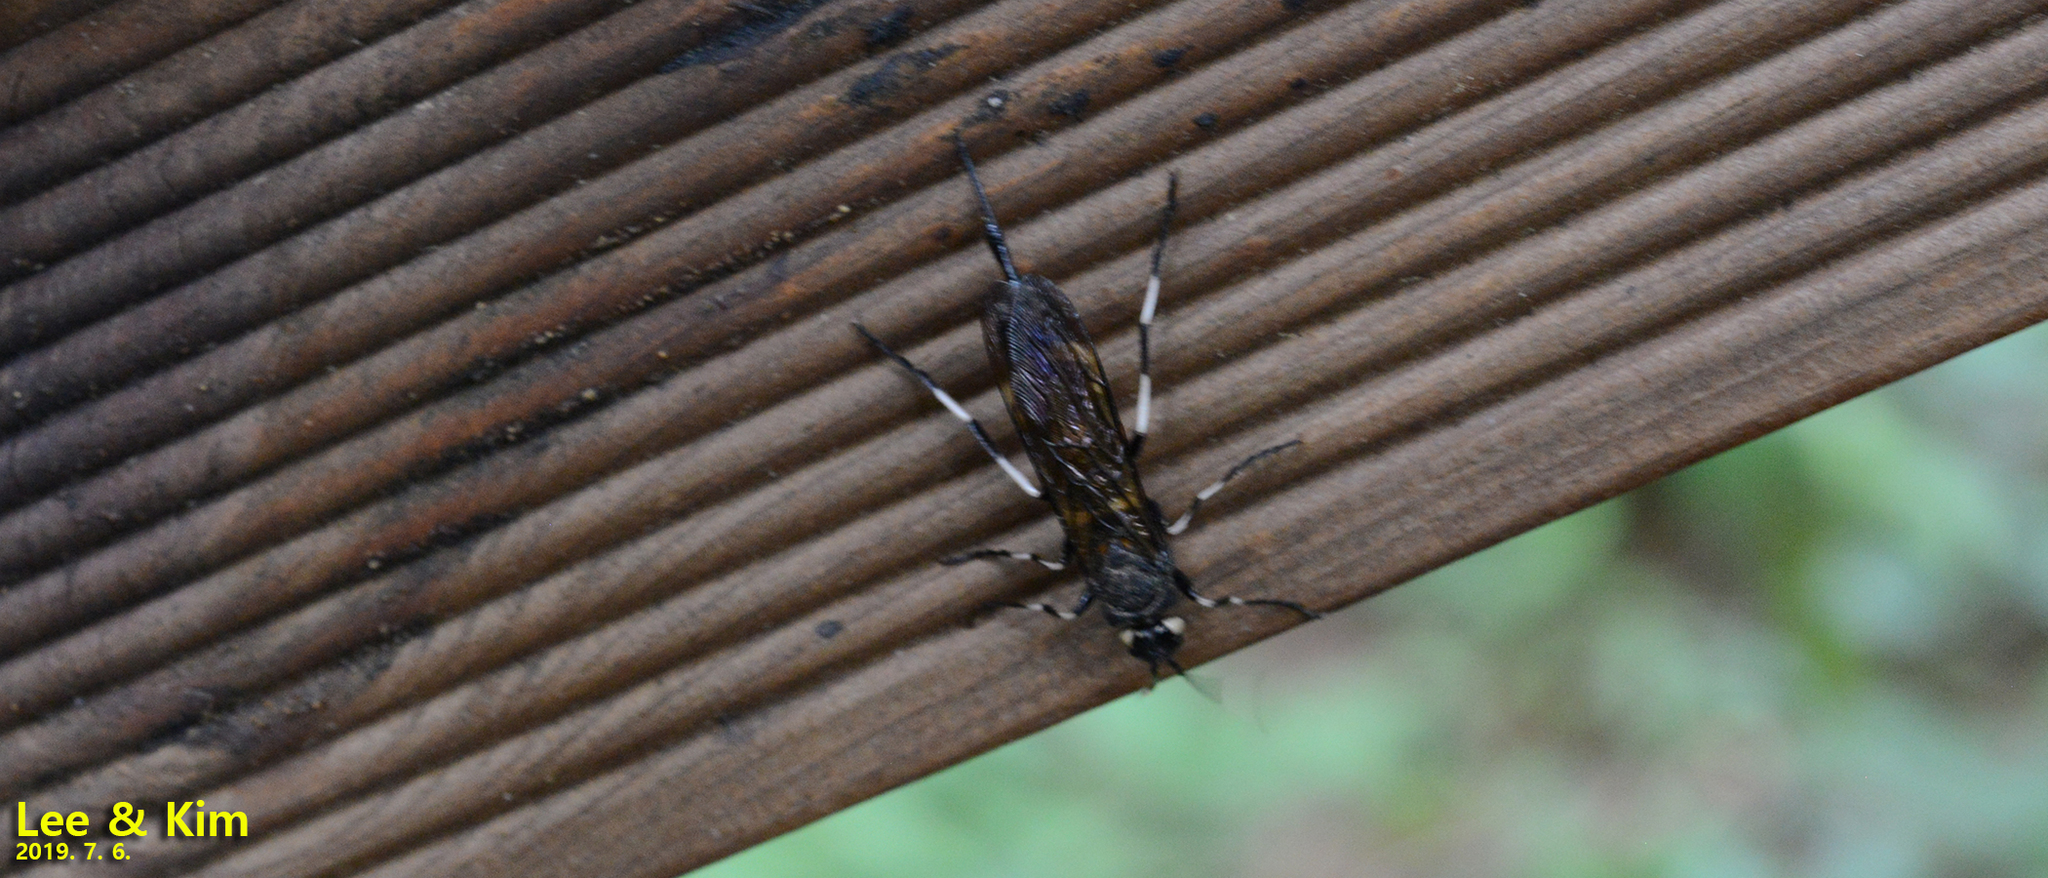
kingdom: Animalia
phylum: Arthropoda
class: Insecta
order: Hymenoptera
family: Siricidae
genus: Urocerus
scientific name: Urocerus
